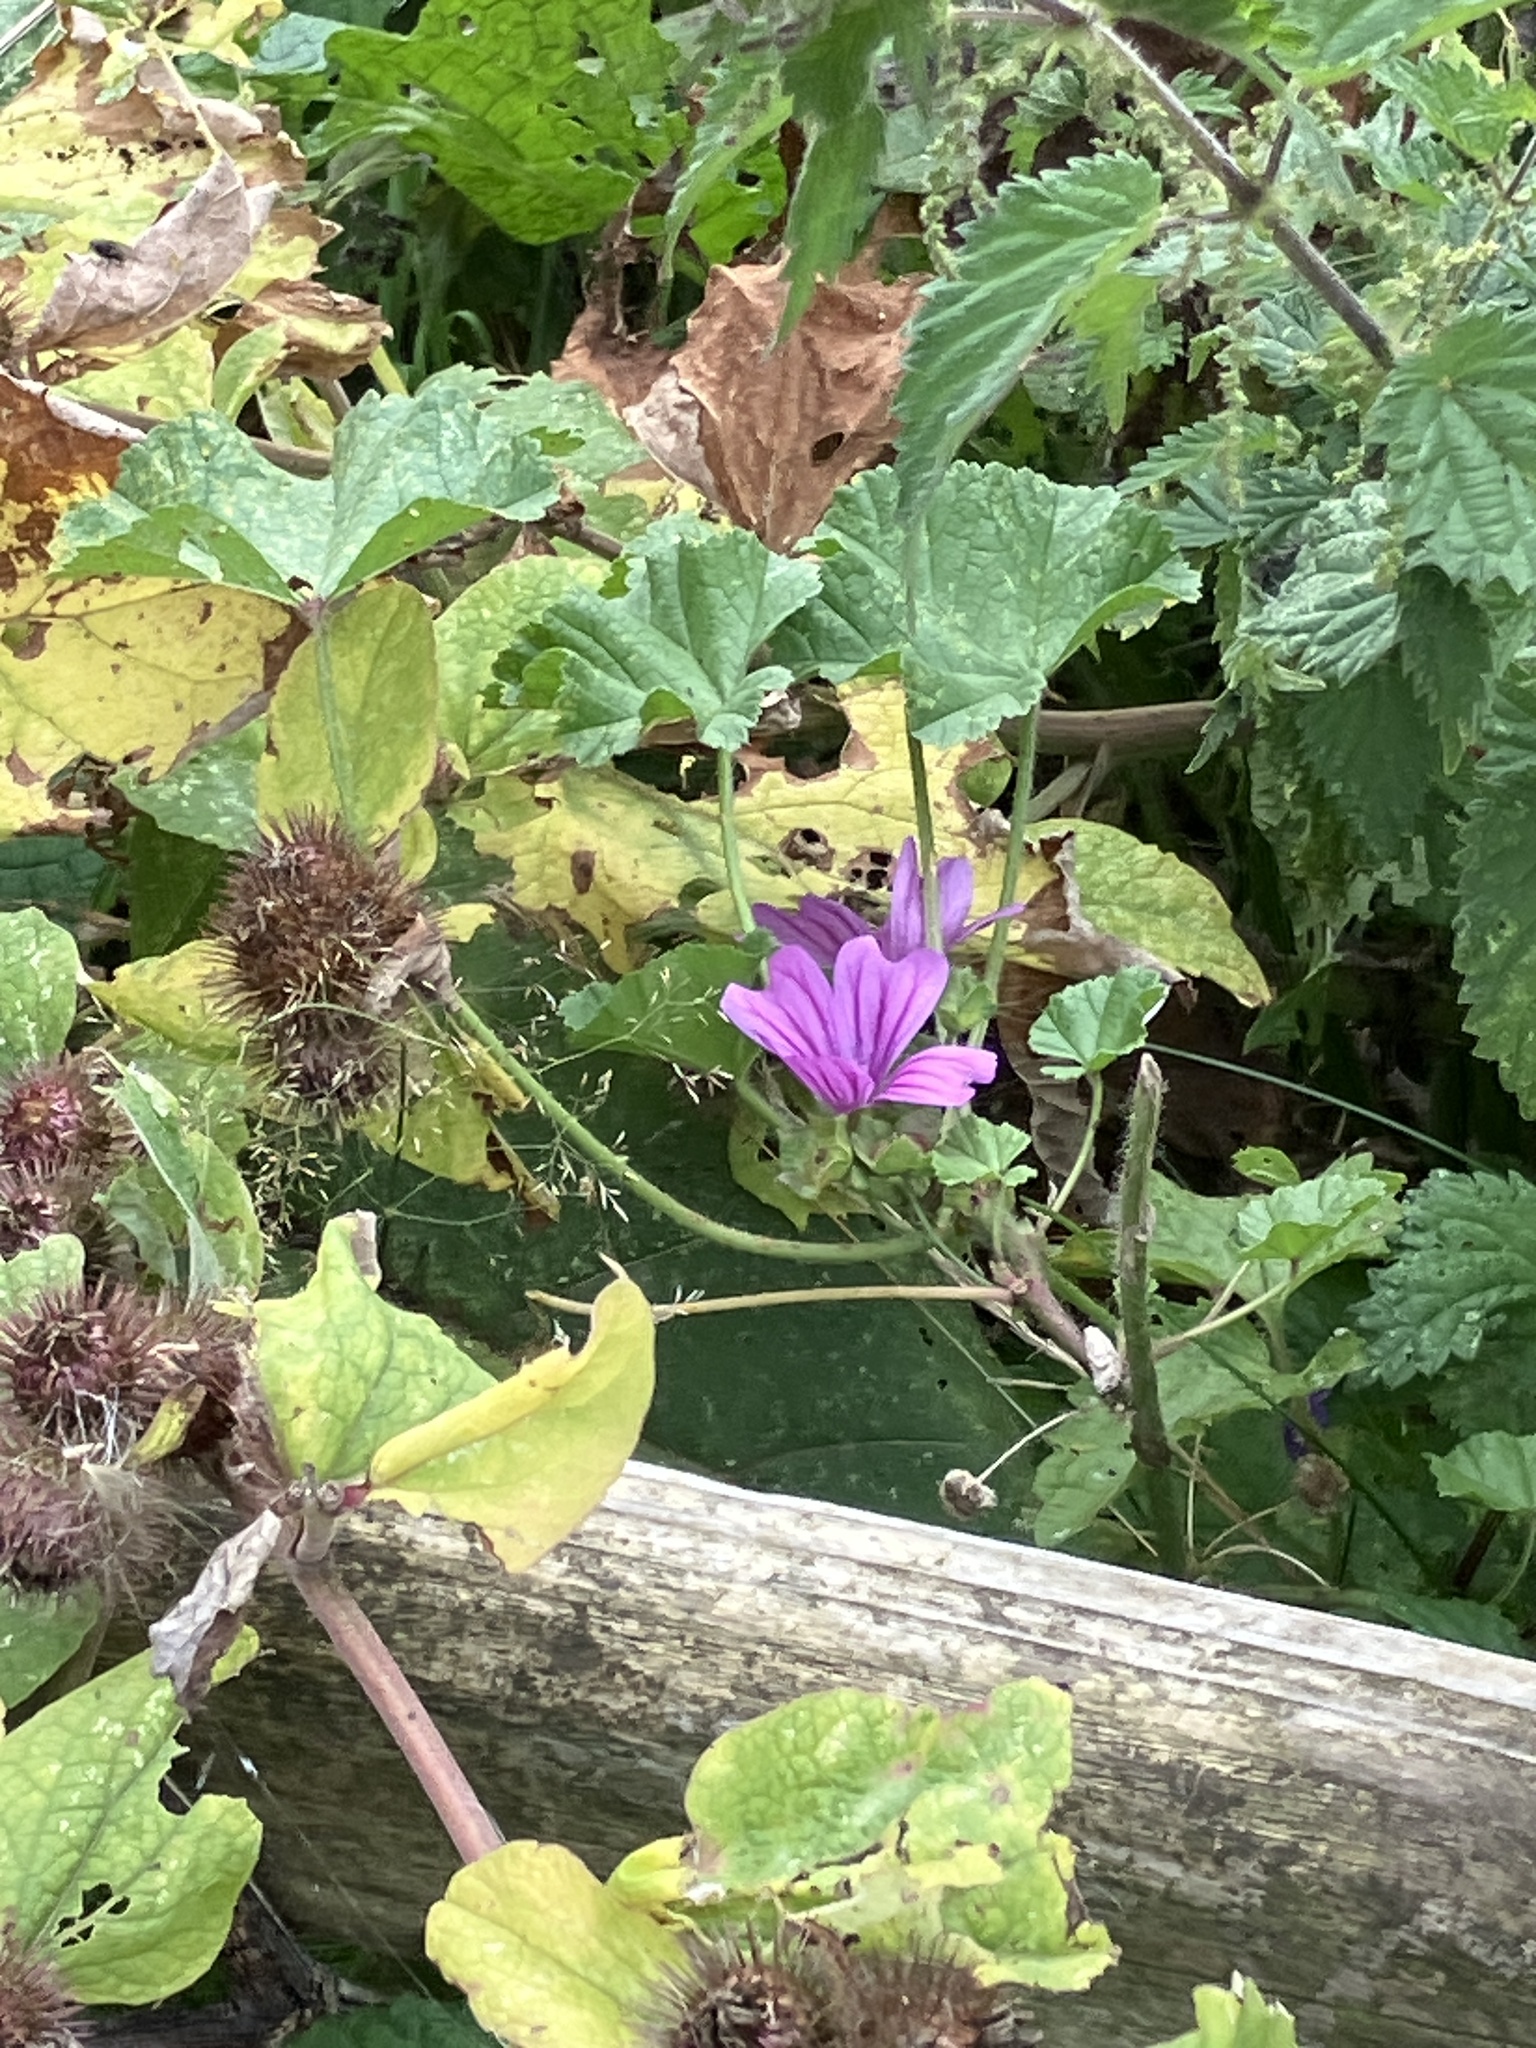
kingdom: Plantae
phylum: Tracheophyta
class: Magnoliopsida
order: Malvales
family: Malvaceae
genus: Malva
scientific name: Malva sylvestris
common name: Common mallow
